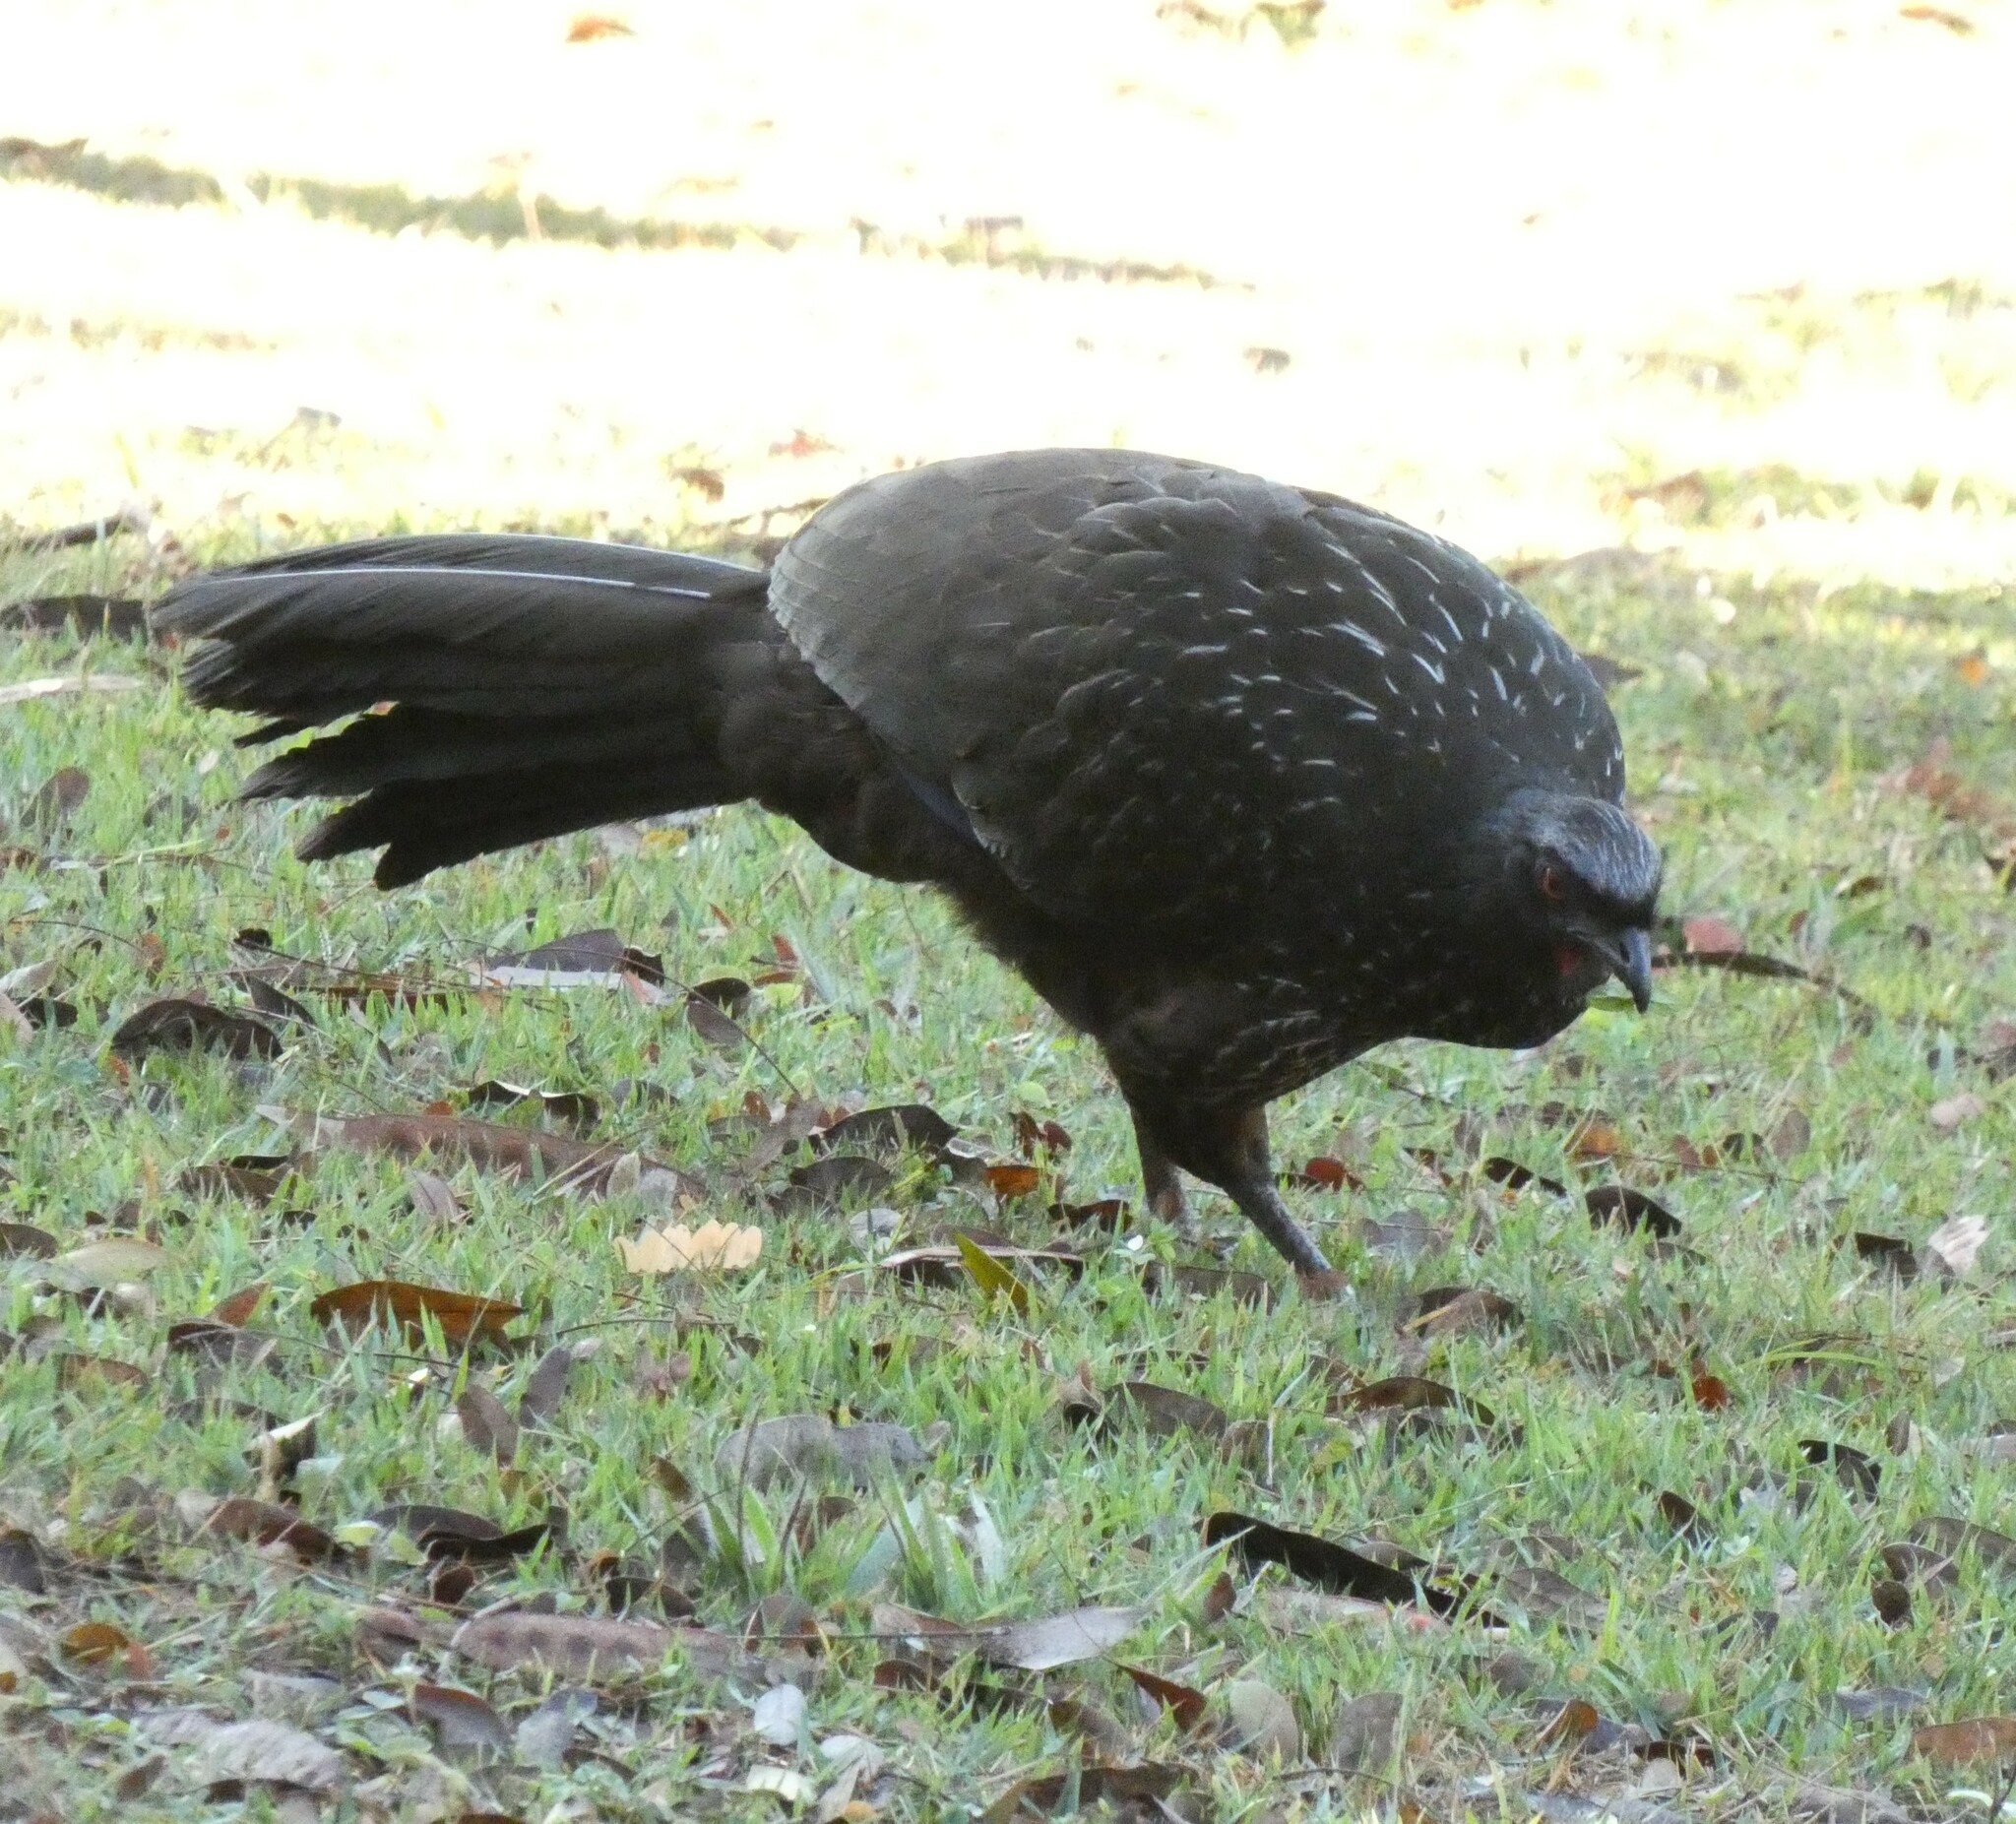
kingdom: Animalia
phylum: Chordata
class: Aves
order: Galliformes
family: Cracidae
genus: Penelope
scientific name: Penelope obscura
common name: Dusky-legged guan
